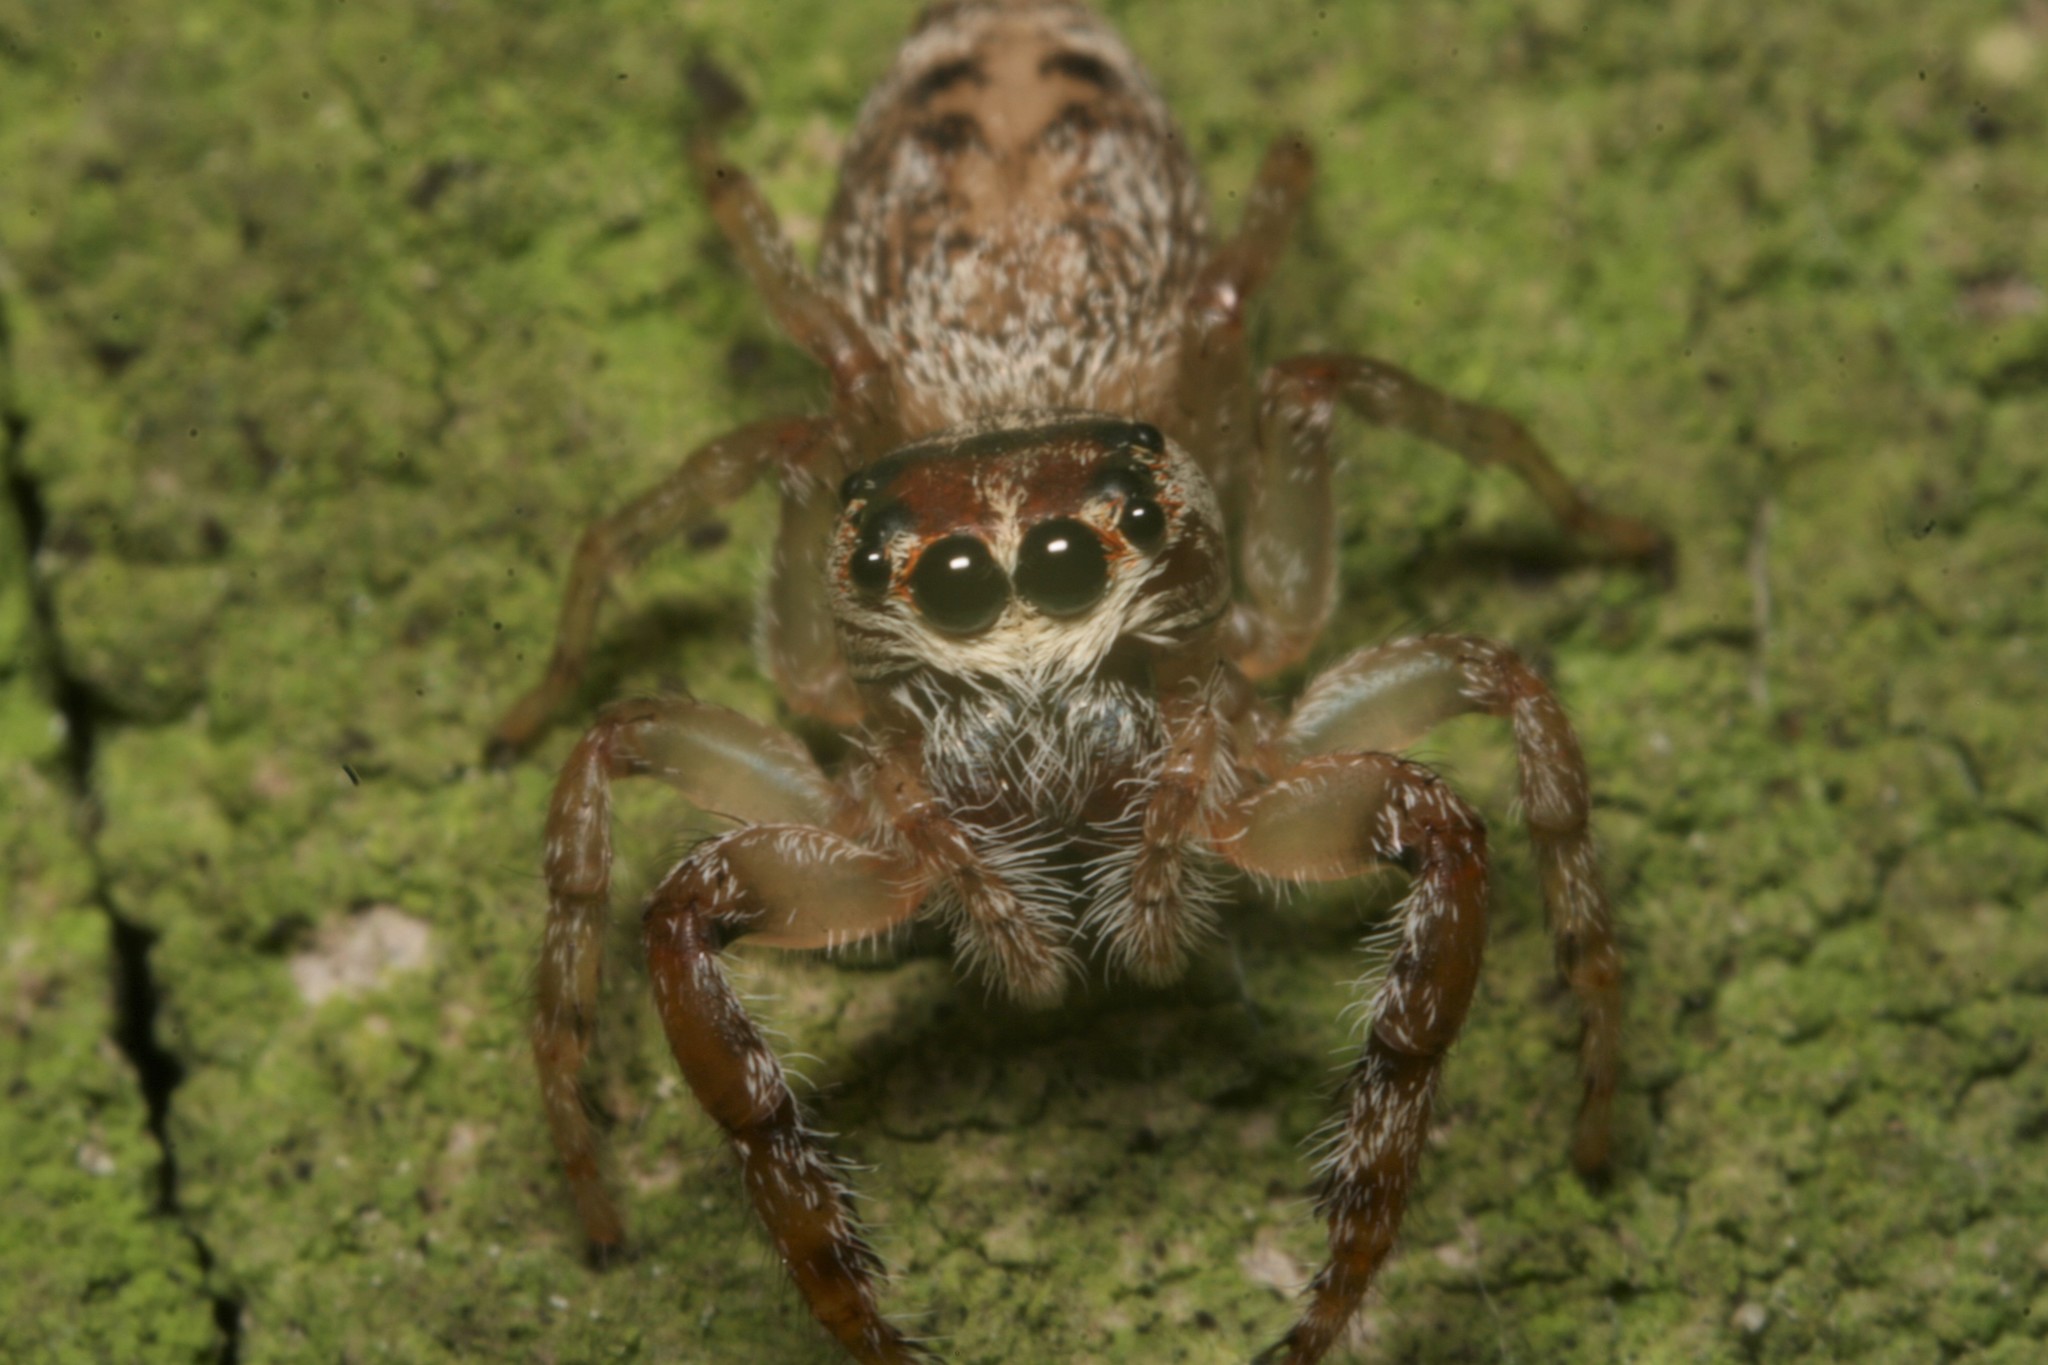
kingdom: Animalia
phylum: Arthropoda
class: Arachnida
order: Araneae
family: Salticidae
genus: Opisthoncus
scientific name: Opisthoncus polyphemus
